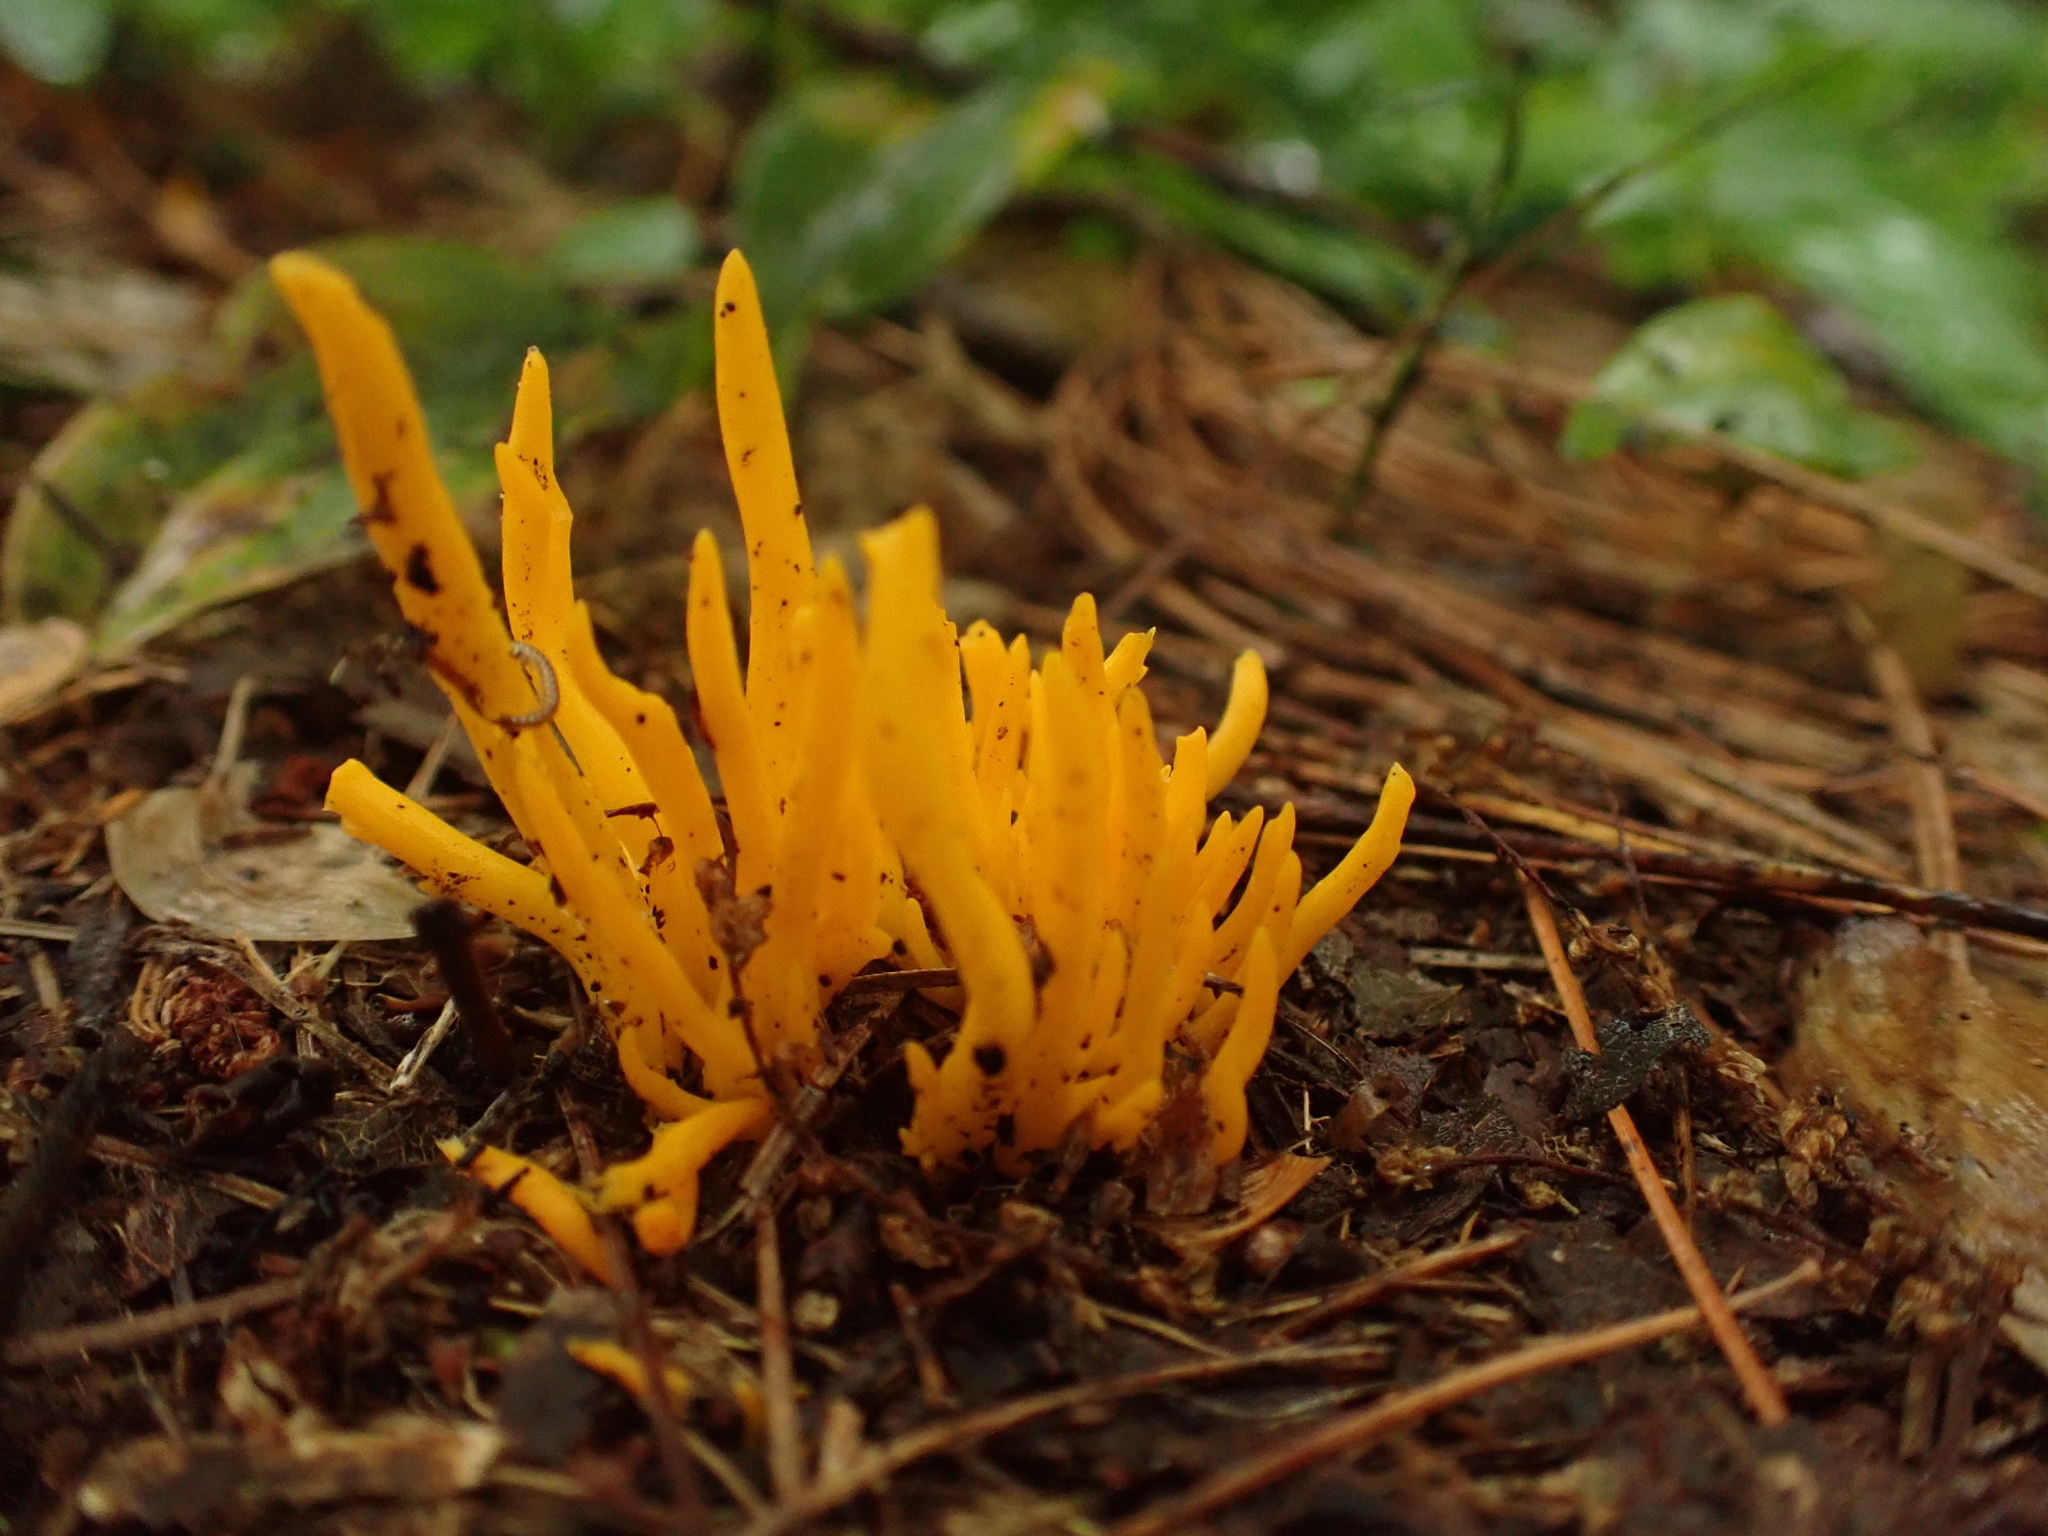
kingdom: Fungi
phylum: Basidiomycota
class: Agaricomycetes
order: Agaricales
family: Clavariaceae
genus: Clavulinopsis
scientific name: Clavulinopsis fusiformis
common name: Golden spindles
